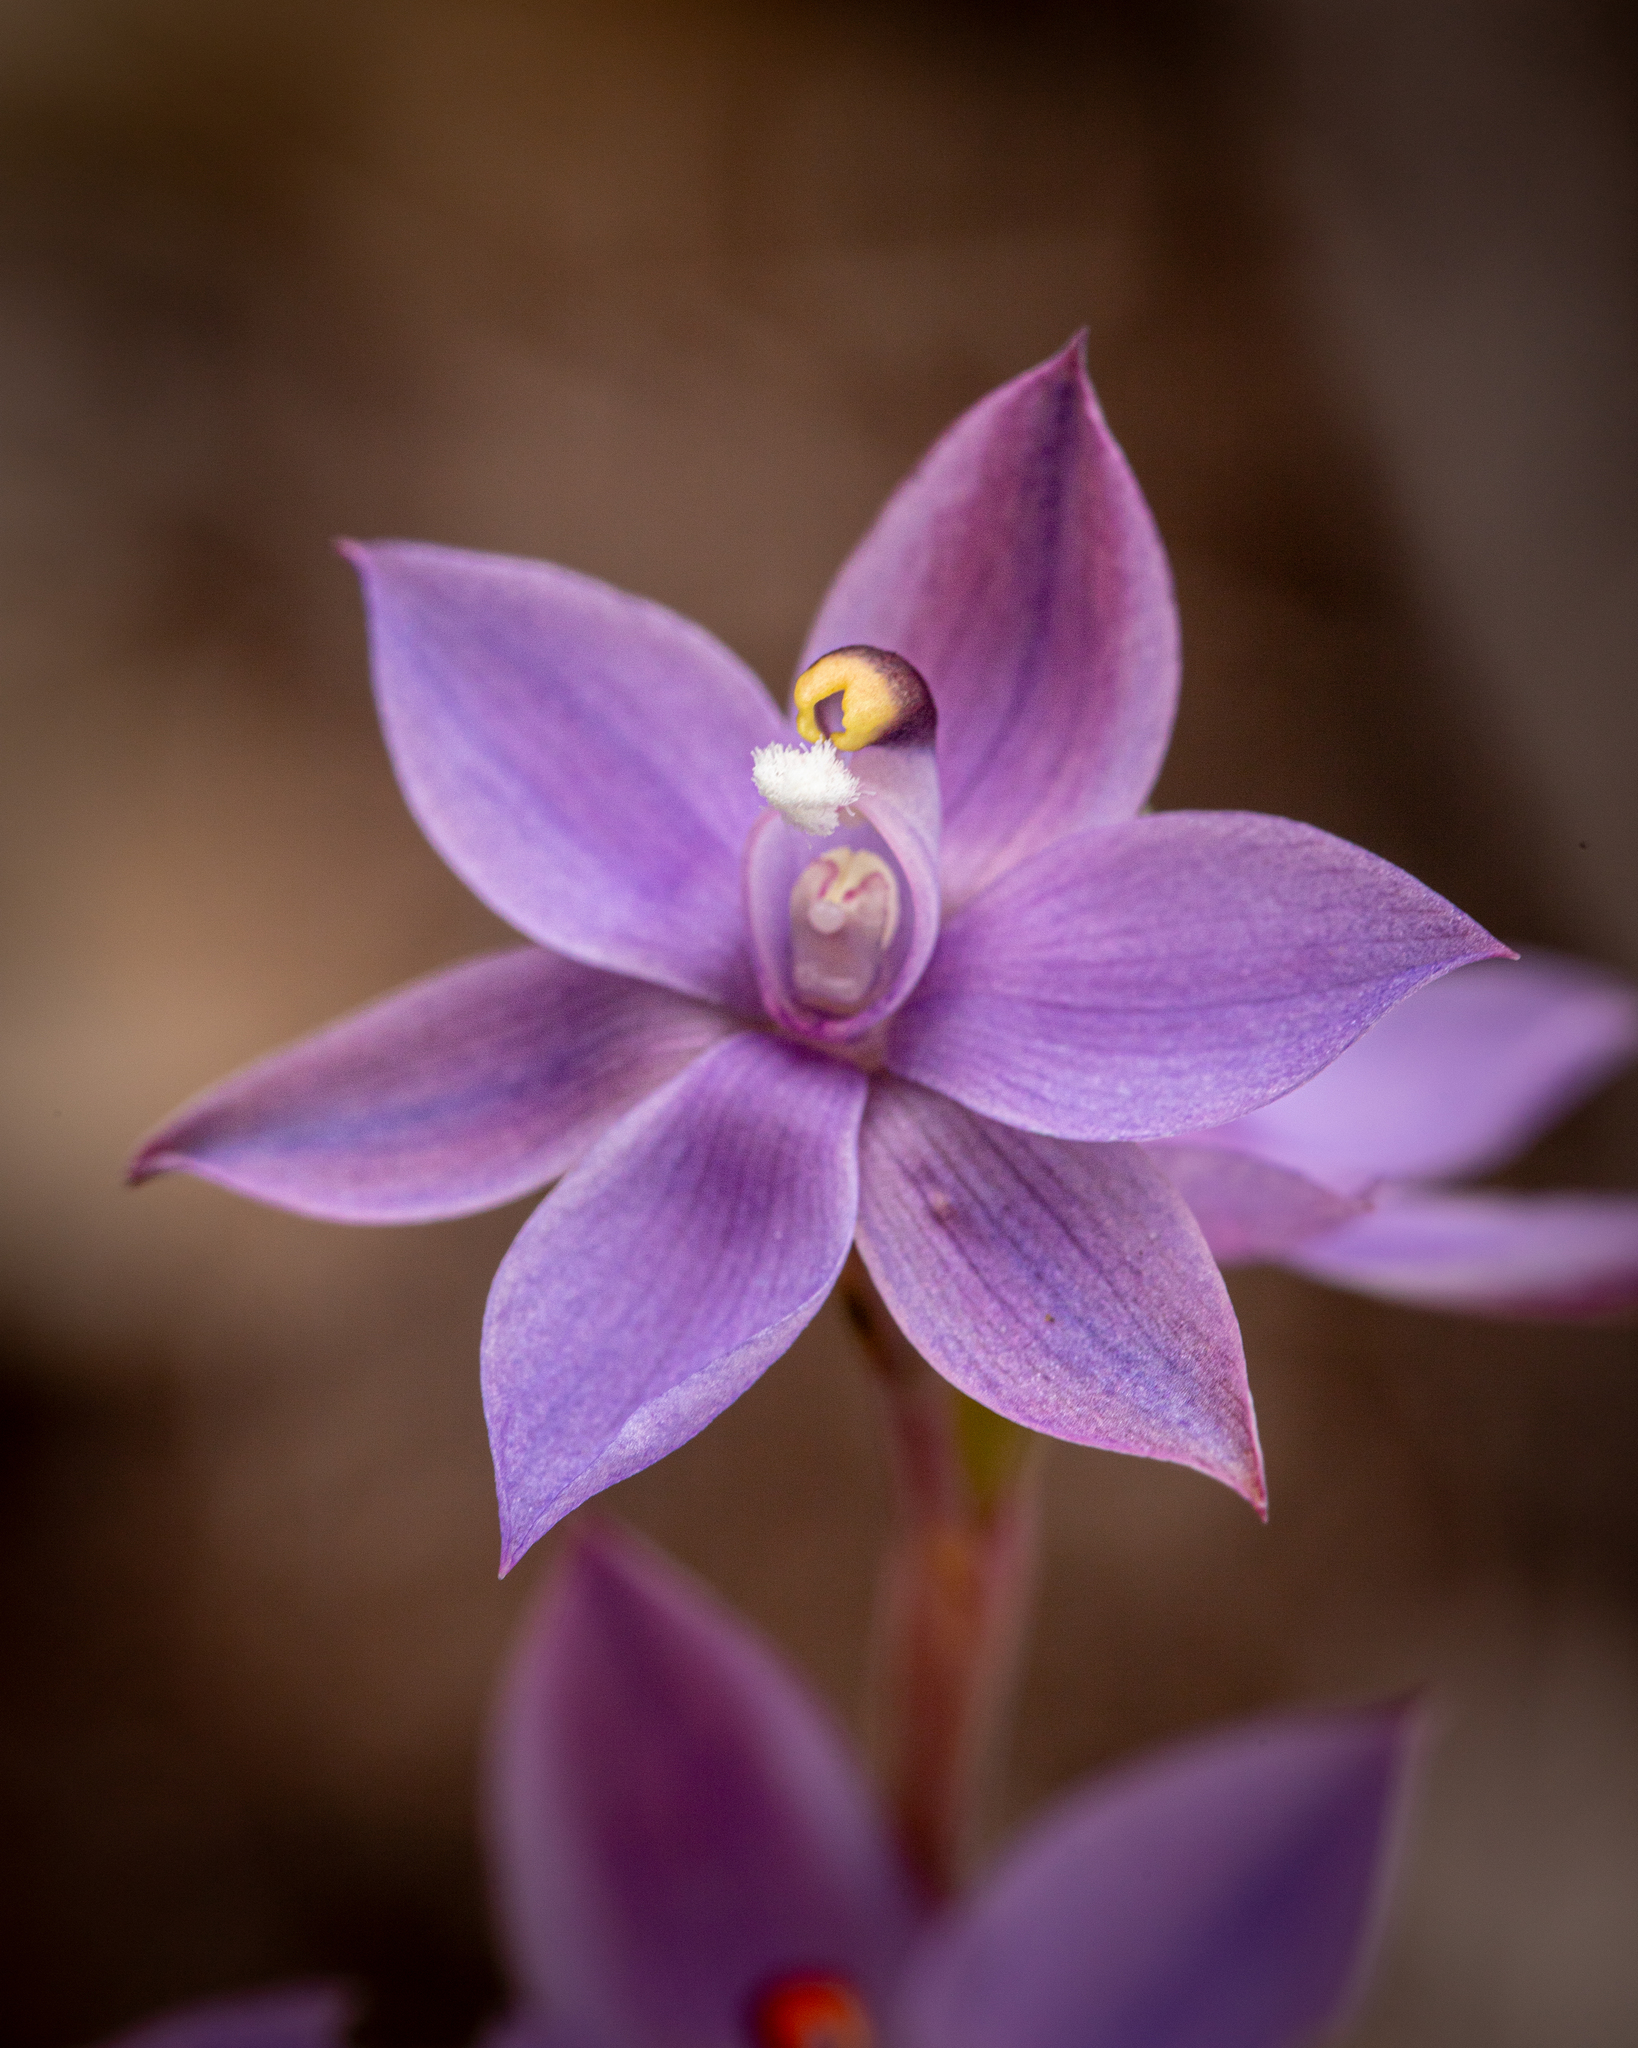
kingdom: Plantae
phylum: Tracheophyta
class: Liliopsida
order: Asparagales
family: Orchidaceae
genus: Thelymitra
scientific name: Thelymitra graminea
